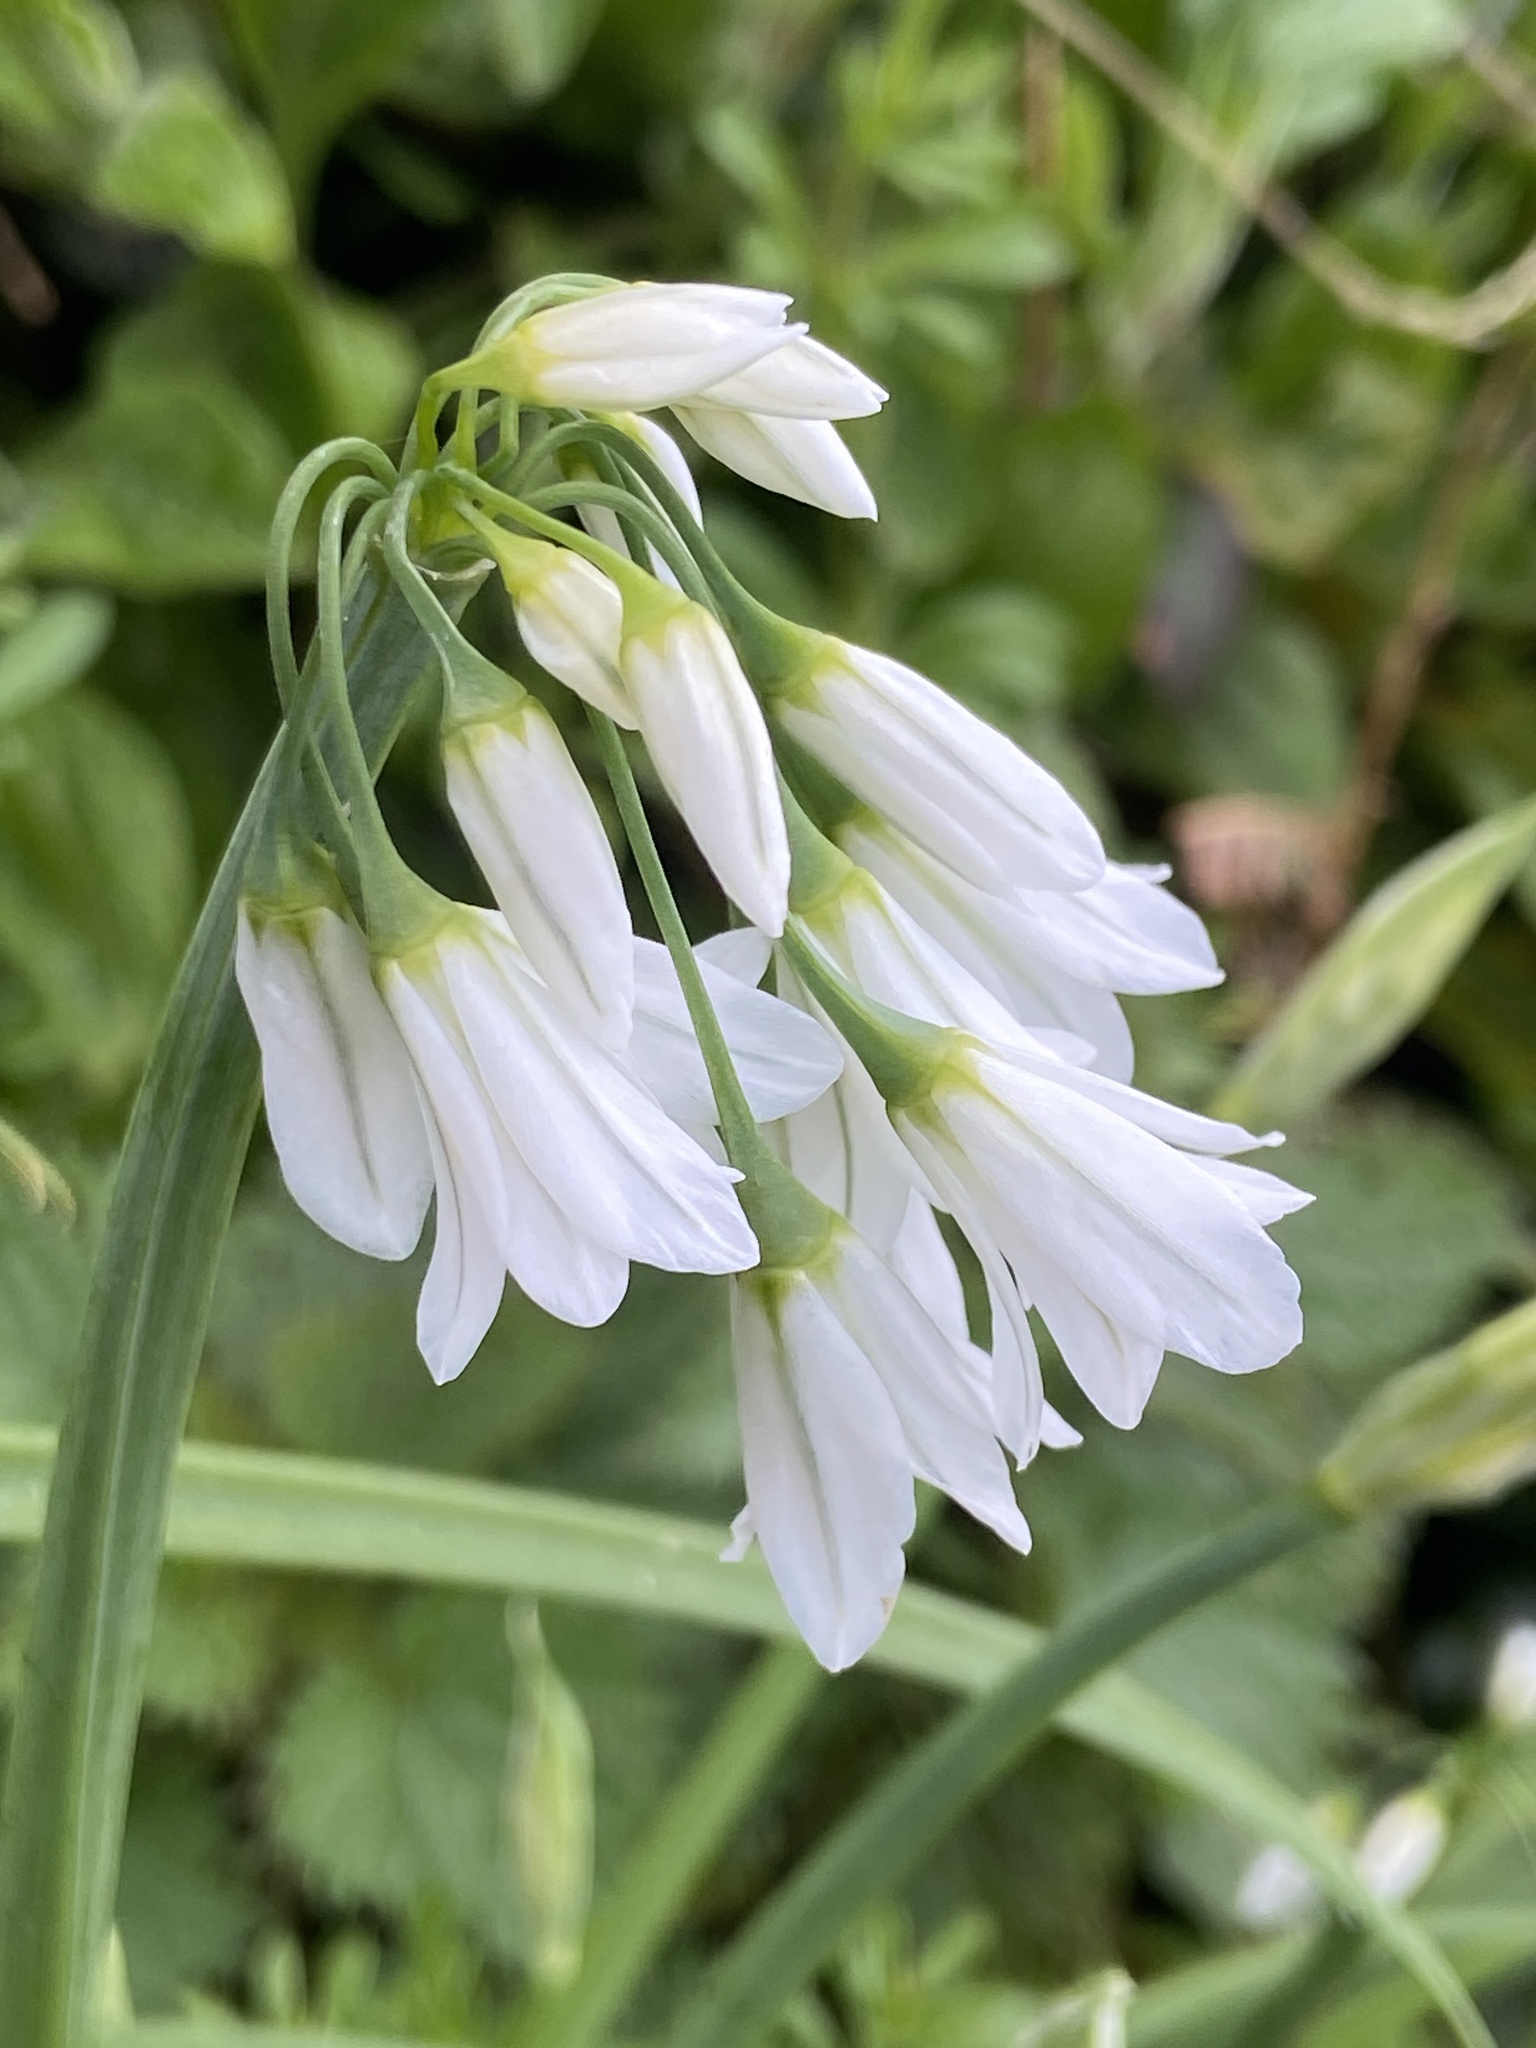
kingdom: Plantae
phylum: Tracheophyta
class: Liliopsida
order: Asparagales
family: Amaryllidaceae
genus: Allium
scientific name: Allium triquetrum
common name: Three-cornered garlic
